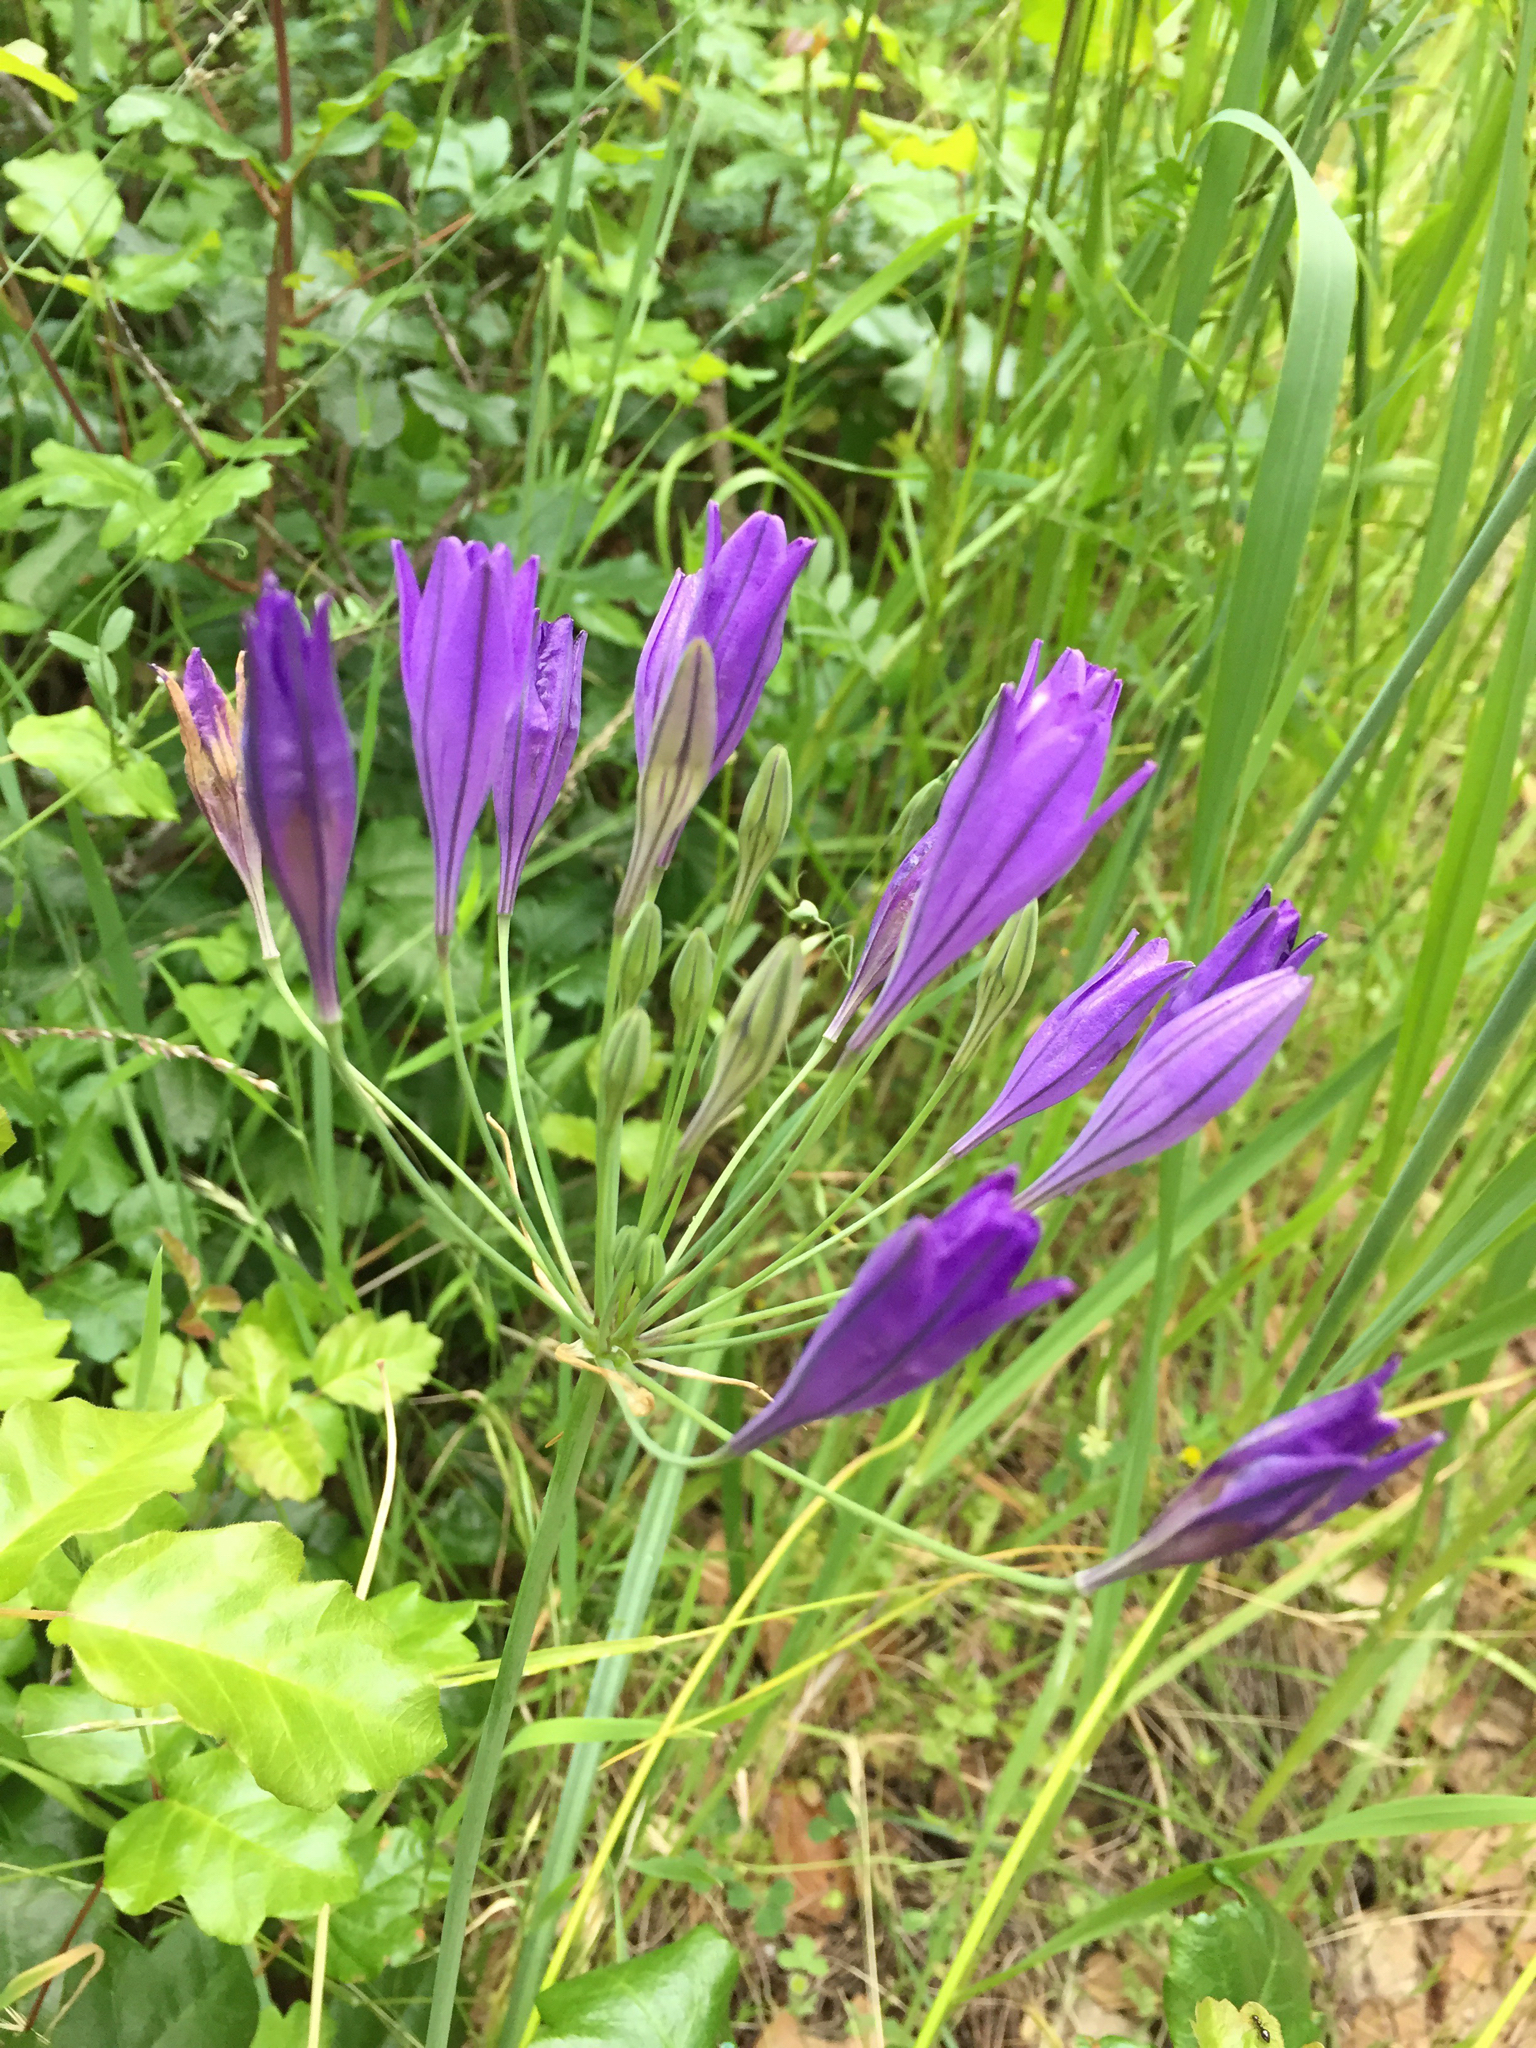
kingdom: Plantae
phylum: Tracheophyta
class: Liliopsida
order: Asparagales
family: Asparagaceae
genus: Triteleia
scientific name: Triteleia laxa
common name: Triplet-lily
